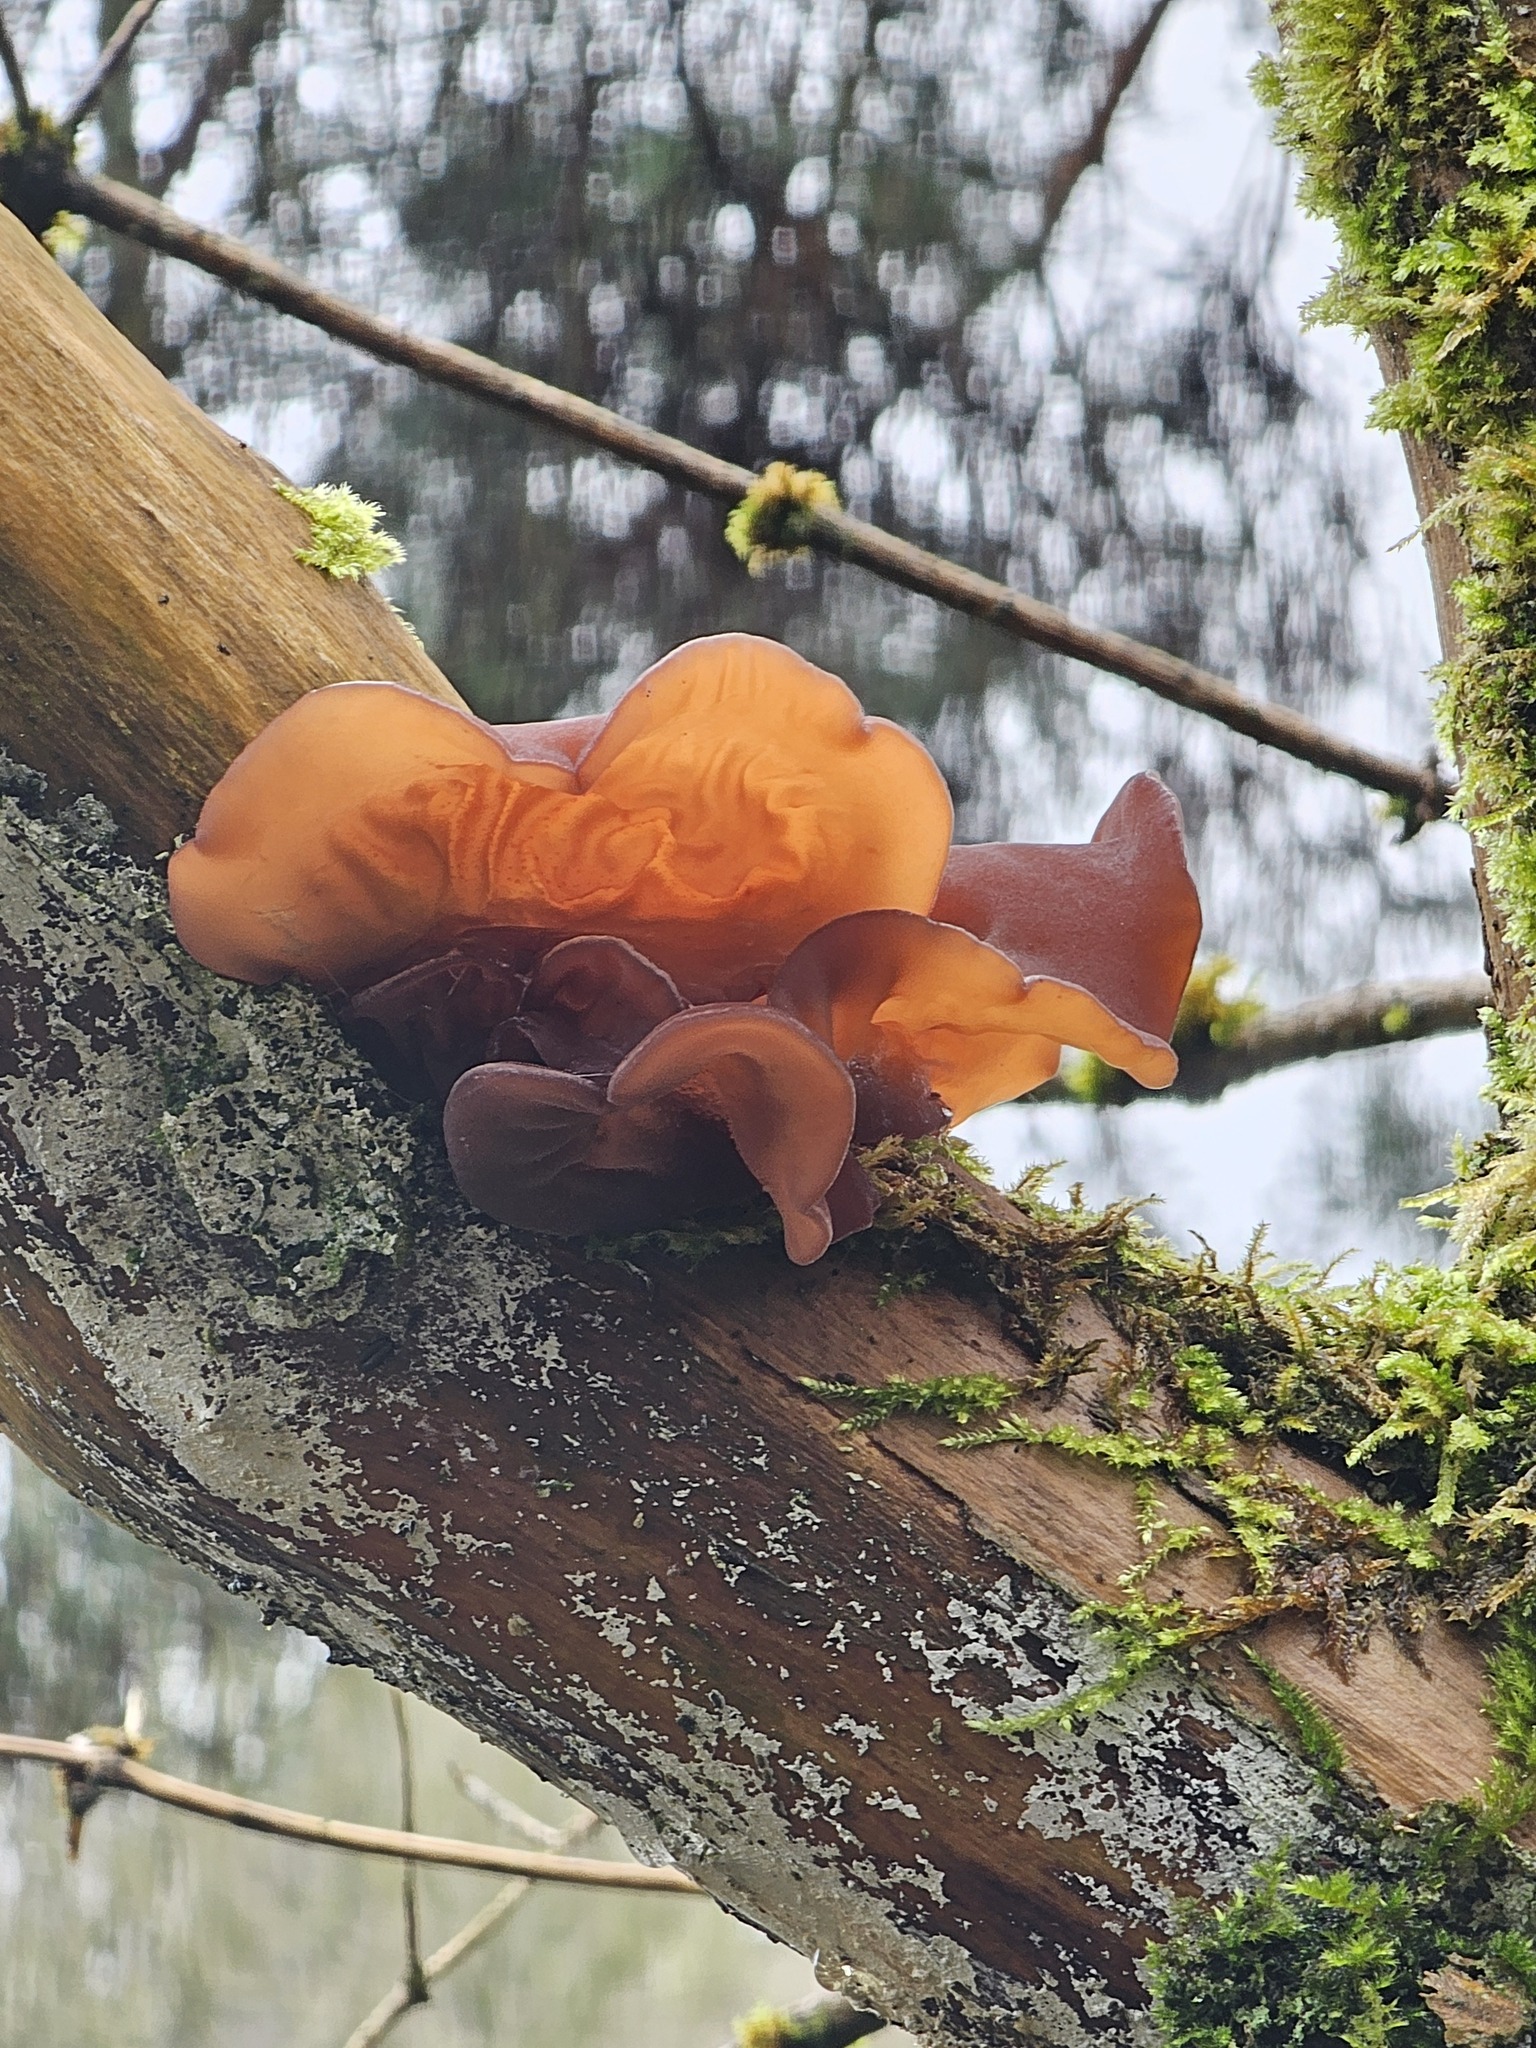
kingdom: Fungi
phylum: Basidiomycota
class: Agaricomycetes
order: Auriculariales
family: Auriculariaceae
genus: Auricularia
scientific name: Auricularia auricula-judae
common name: Jelly ear
